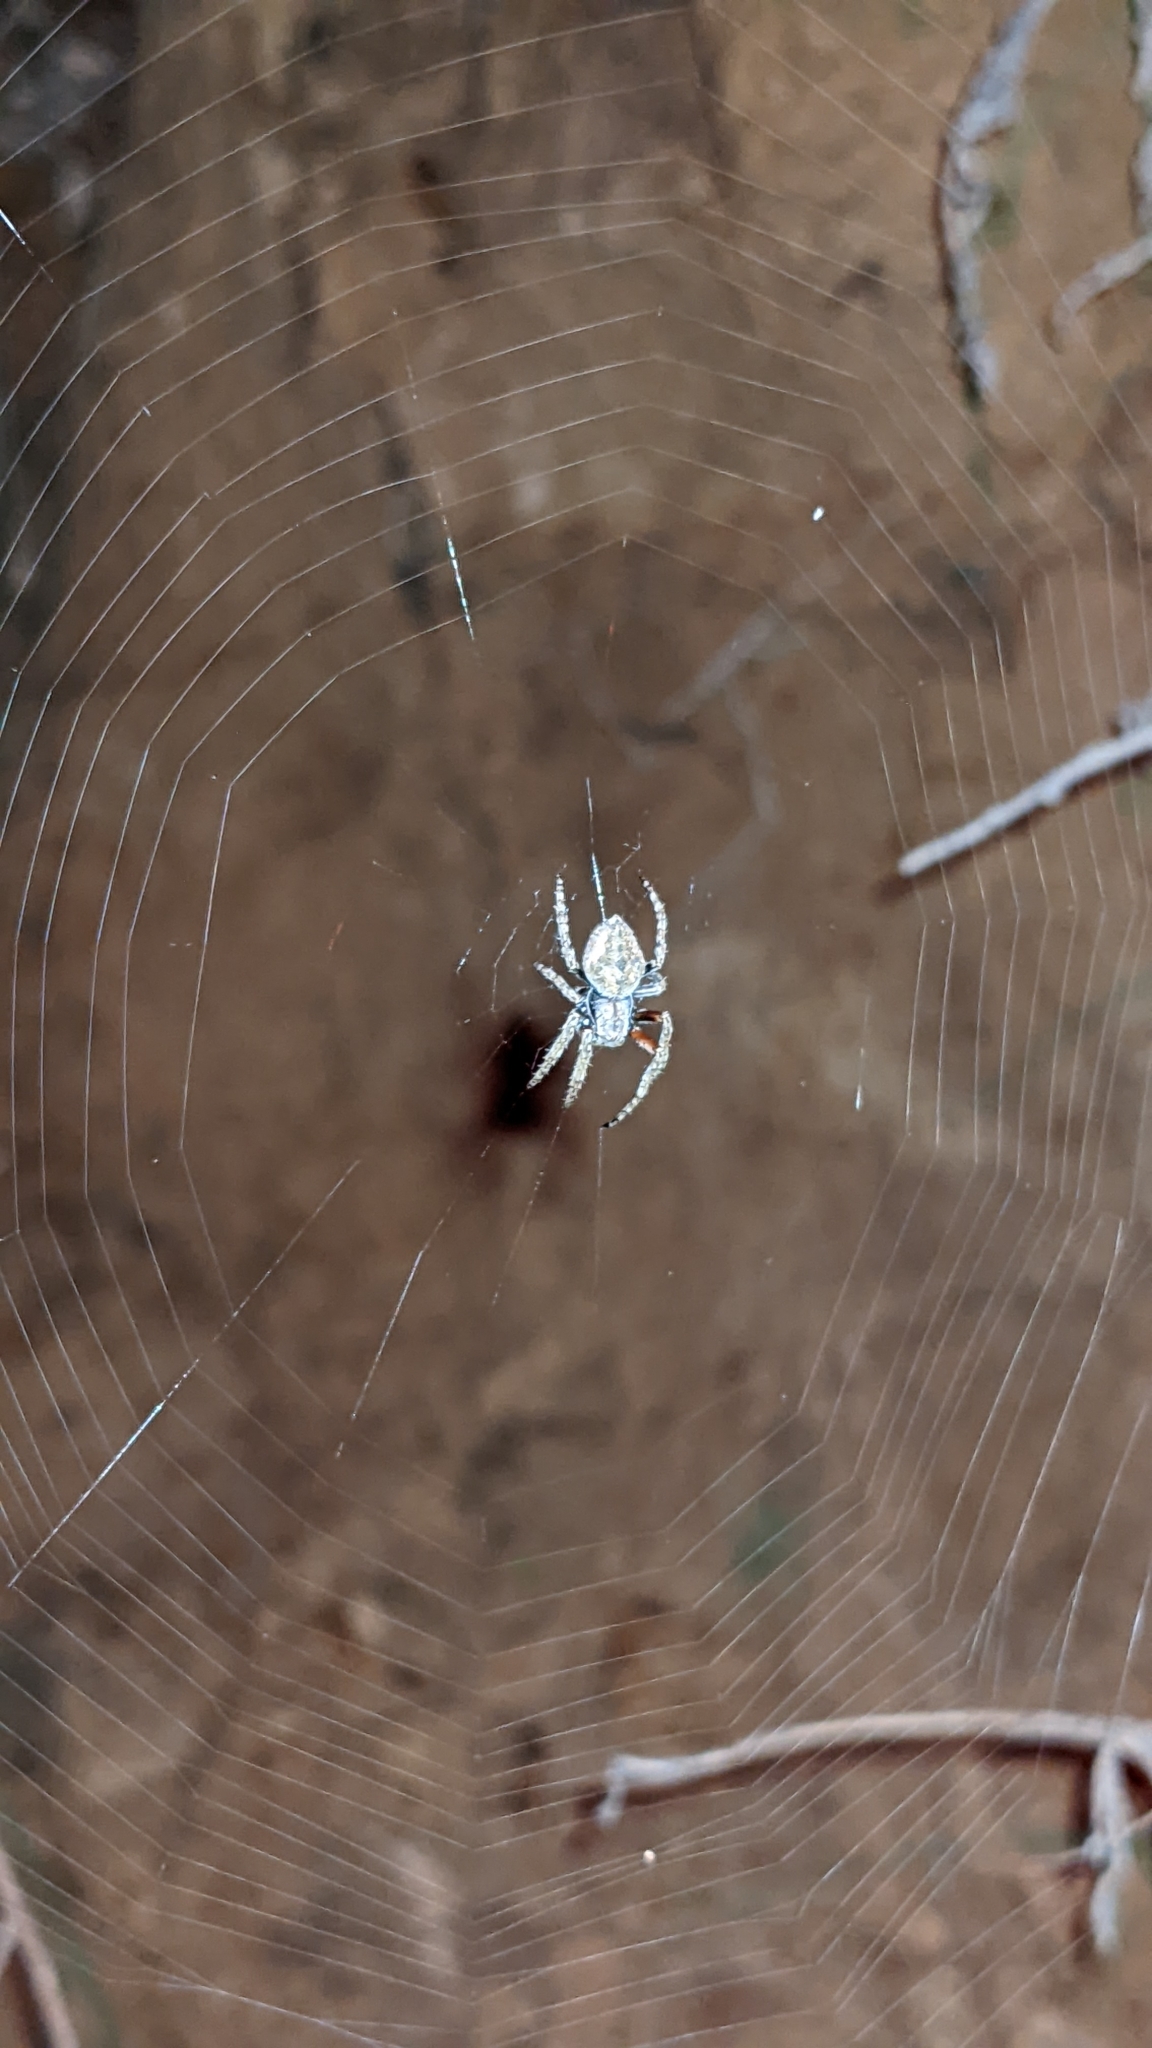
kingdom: Animalia
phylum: Arthropoda
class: Arachnida
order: Araneae
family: Araneidae
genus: Eriophora
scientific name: Eriophora pustulosa
